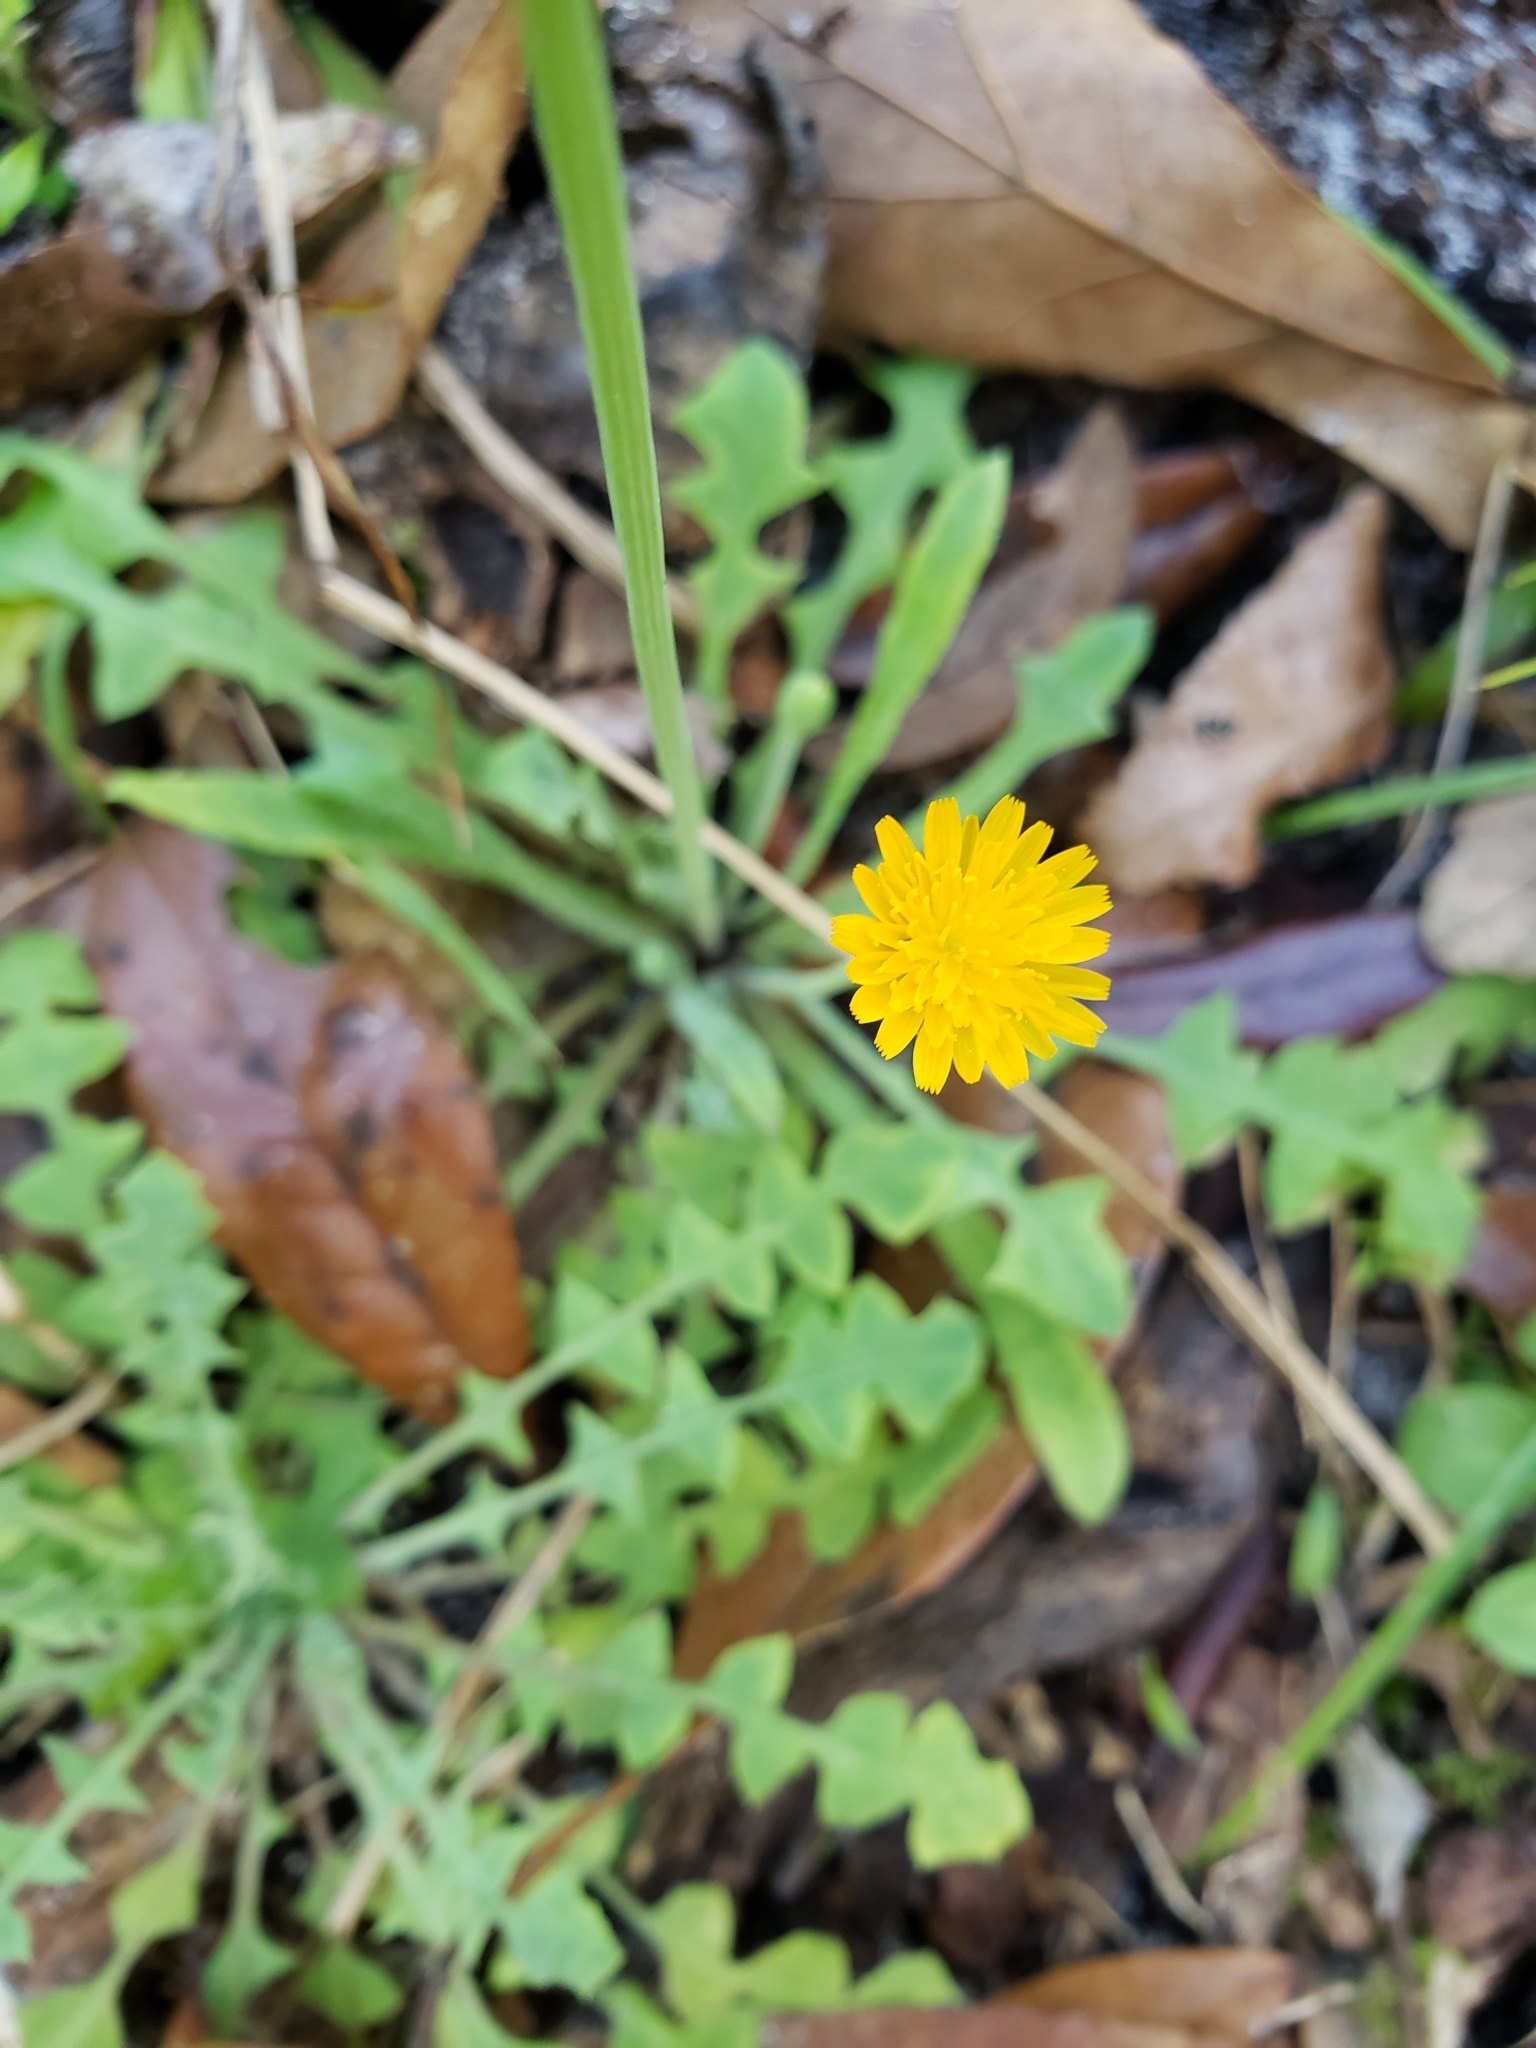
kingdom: Plantae
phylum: Tracheophyta
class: Magnoliopsida
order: Asterales
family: Asteraceae
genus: Krigia
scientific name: Krigia virginica
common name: Virginia dwarf-dandelion
